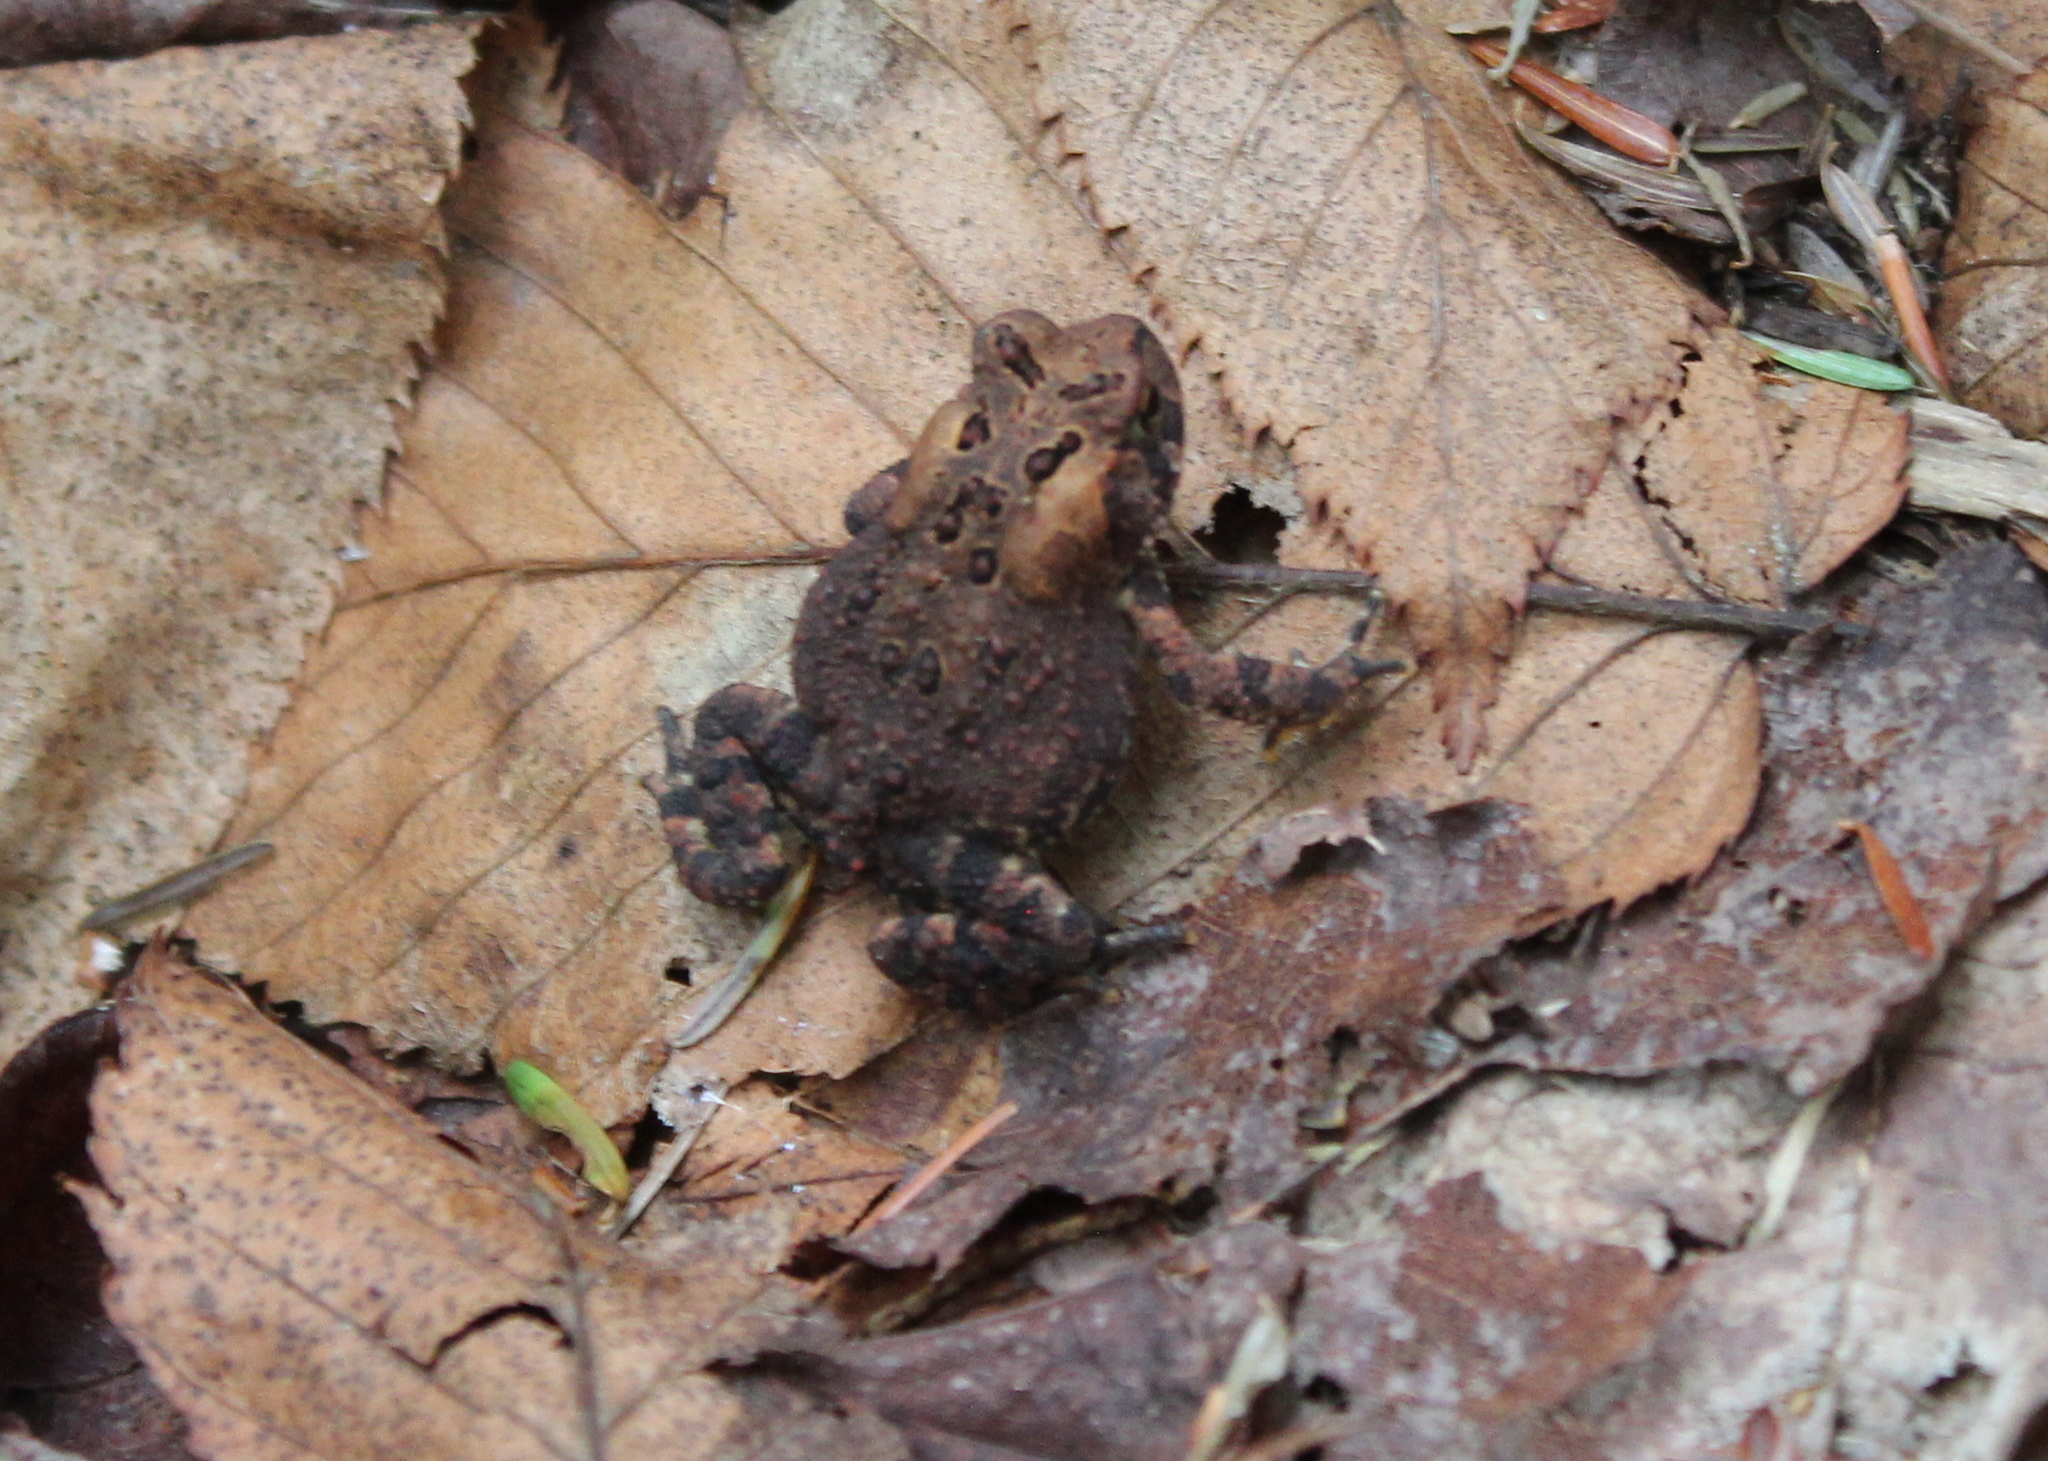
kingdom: Animalia
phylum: Chordata
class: Amphibia
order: Anura
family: Bufonidae
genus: Anaxyrus
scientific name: Anaxyrus americanus
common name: American toad
